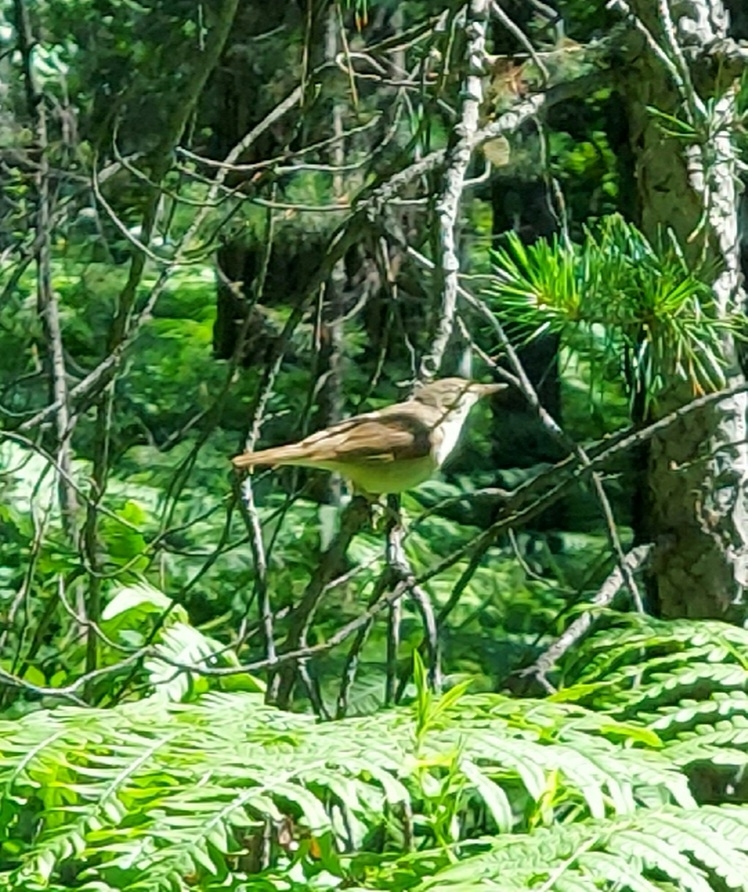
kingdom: Animalia
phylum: Chordata
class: Aves
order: Passeriformes
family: Acrocephalidae
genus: Acrocephalus
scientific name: Acrocephalus dumetorum
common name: Blyth's reed warbler
